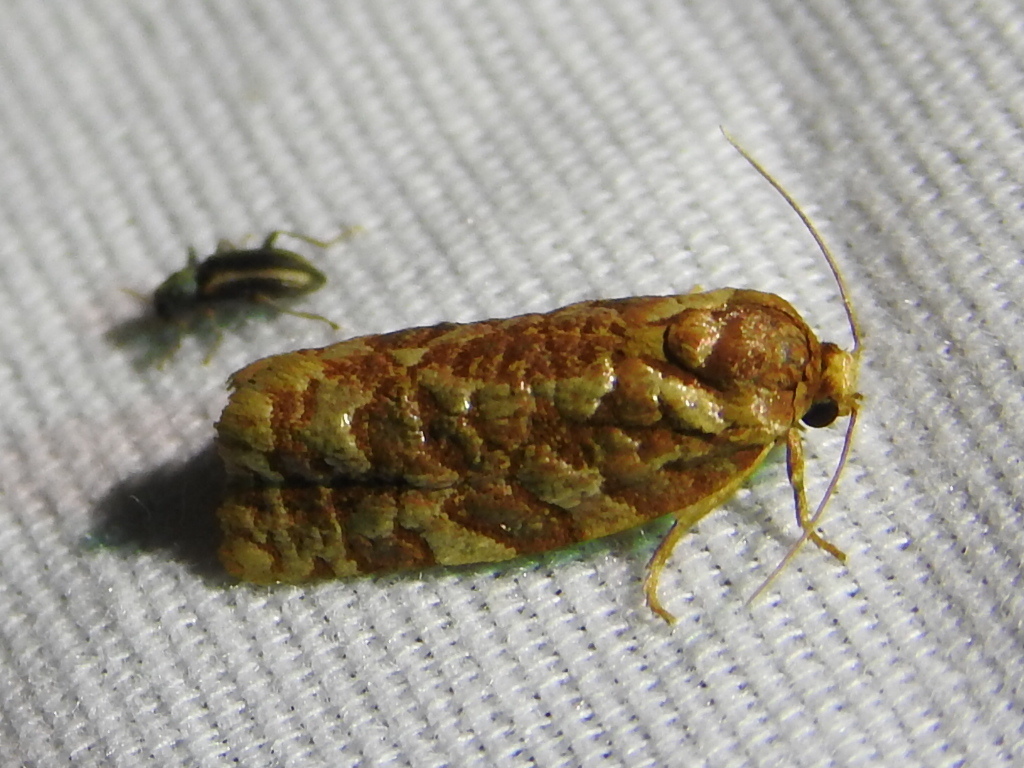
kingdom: Animalia
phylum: Arthropoda
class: Insecta
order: Lepidoptera
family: Tortricidae
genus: Choristoneura
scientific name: Choristoneura houstonana
